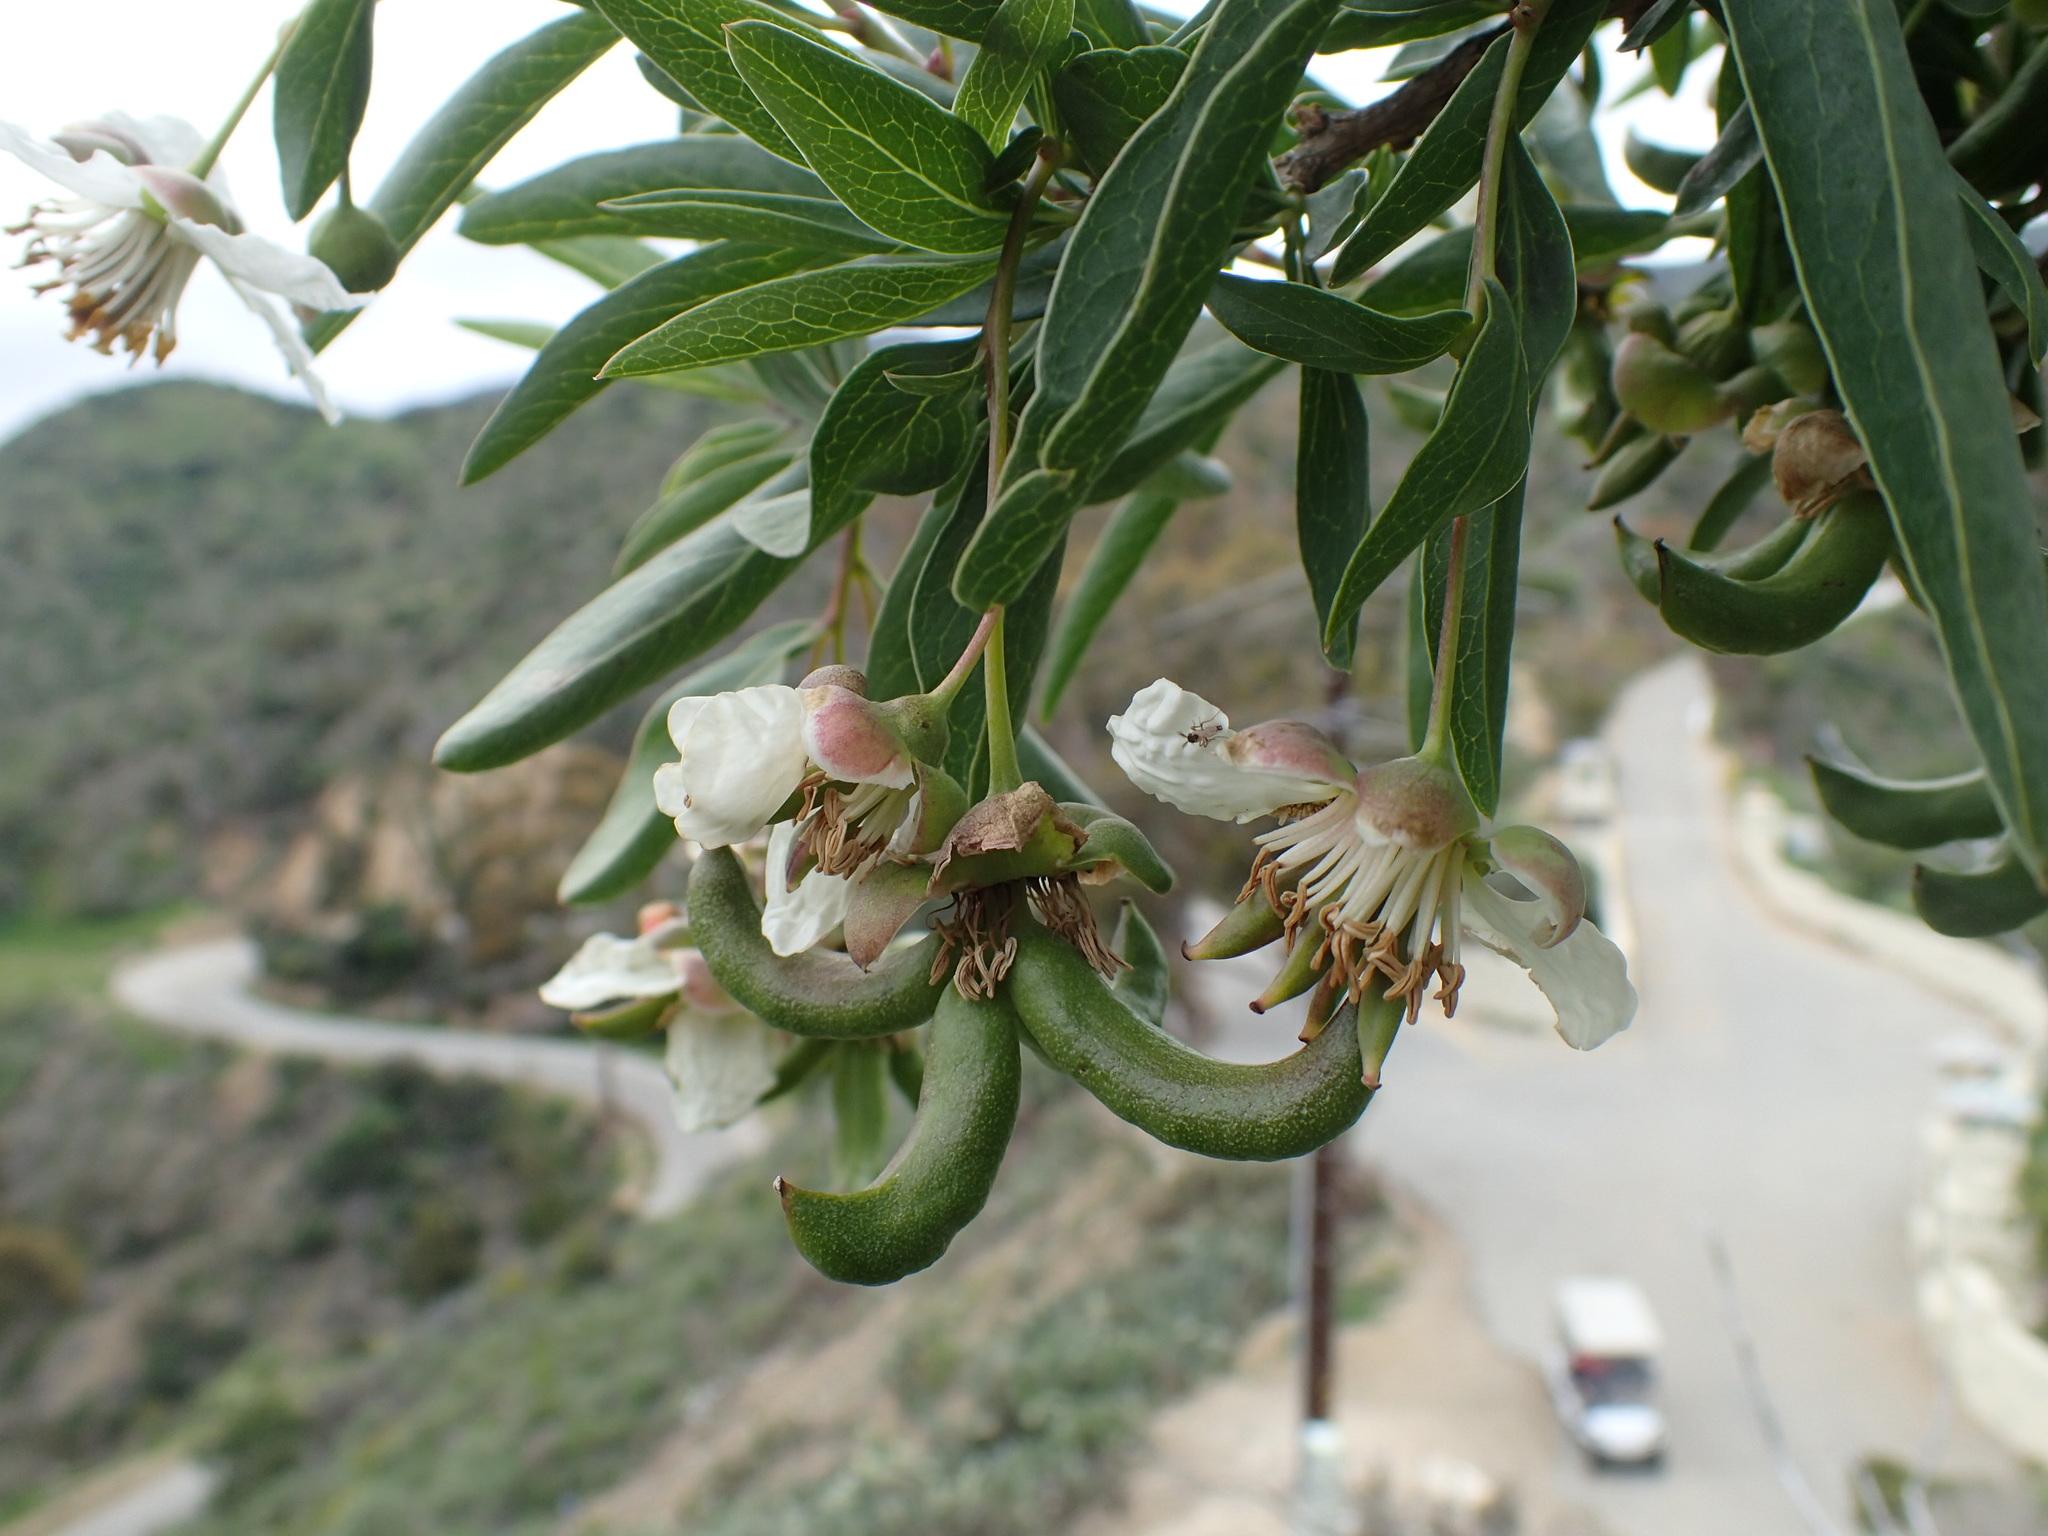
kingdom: Plantae
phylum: Tracheophyta
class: Magnoliopsida
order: Crossosomatales
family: Crossosomataceae
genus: Crossosoma
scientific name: Crossosoma californicum
